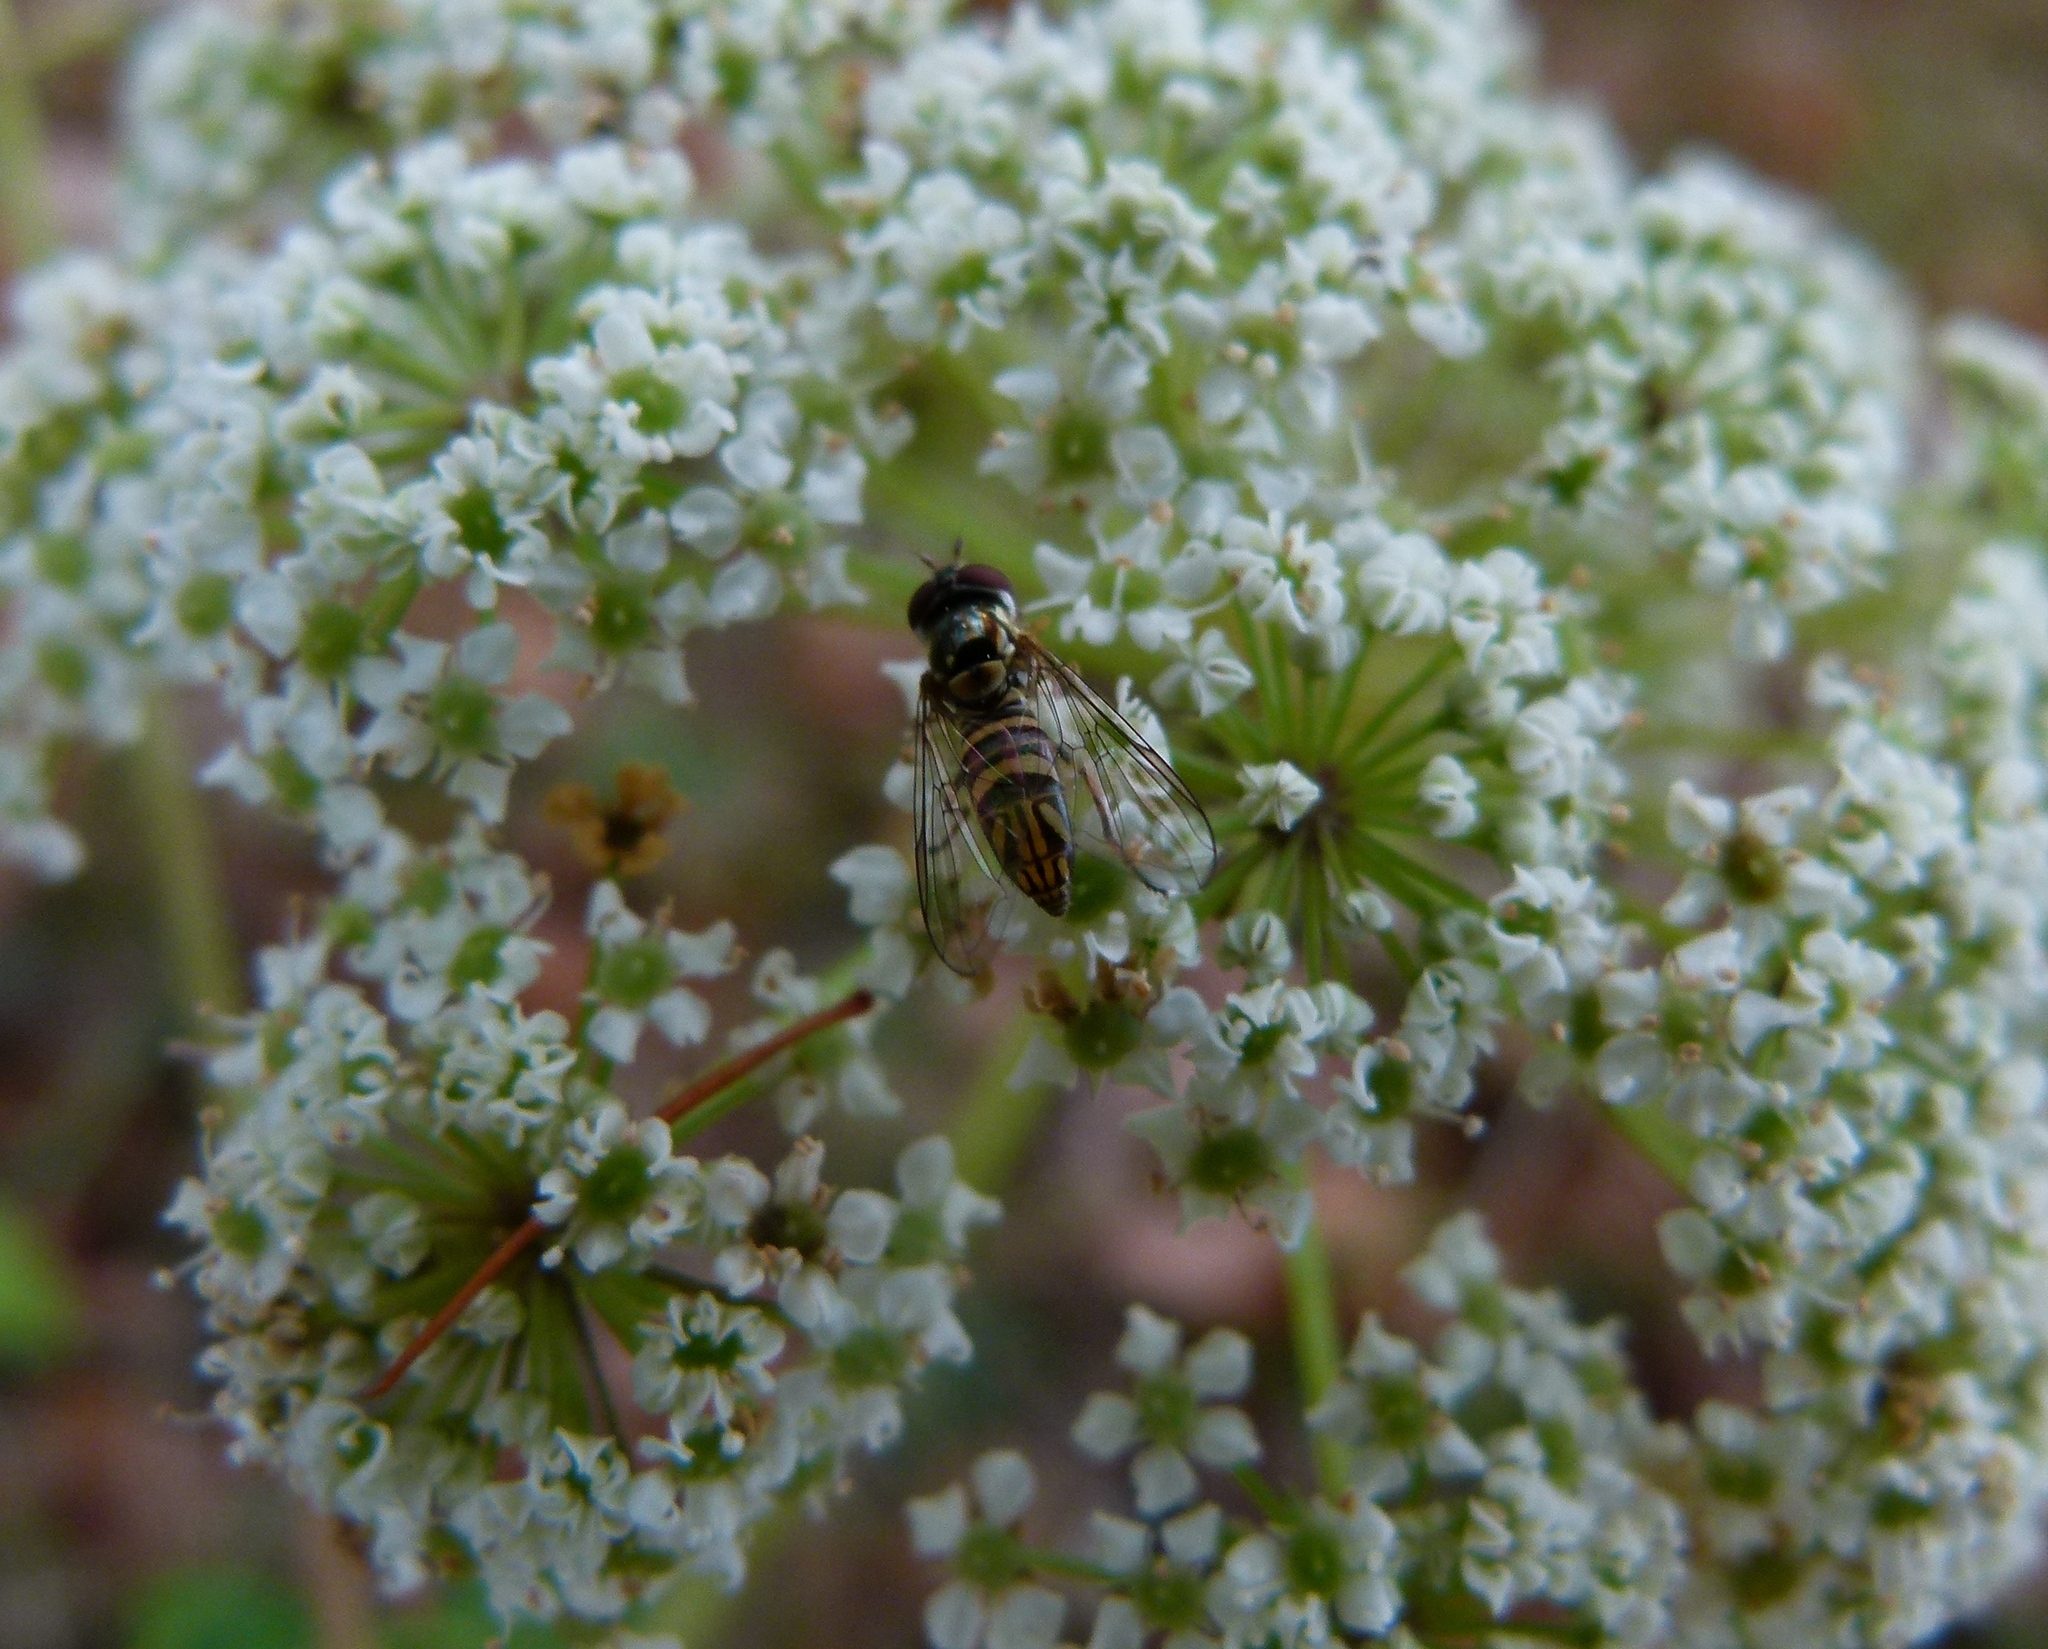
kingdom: Animalia
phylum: Arthropoda
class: Insecta
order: Diptera
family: Syrphidae
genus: Allograpta
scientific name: Allograpta obliqua
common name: Common oblique syrphid
